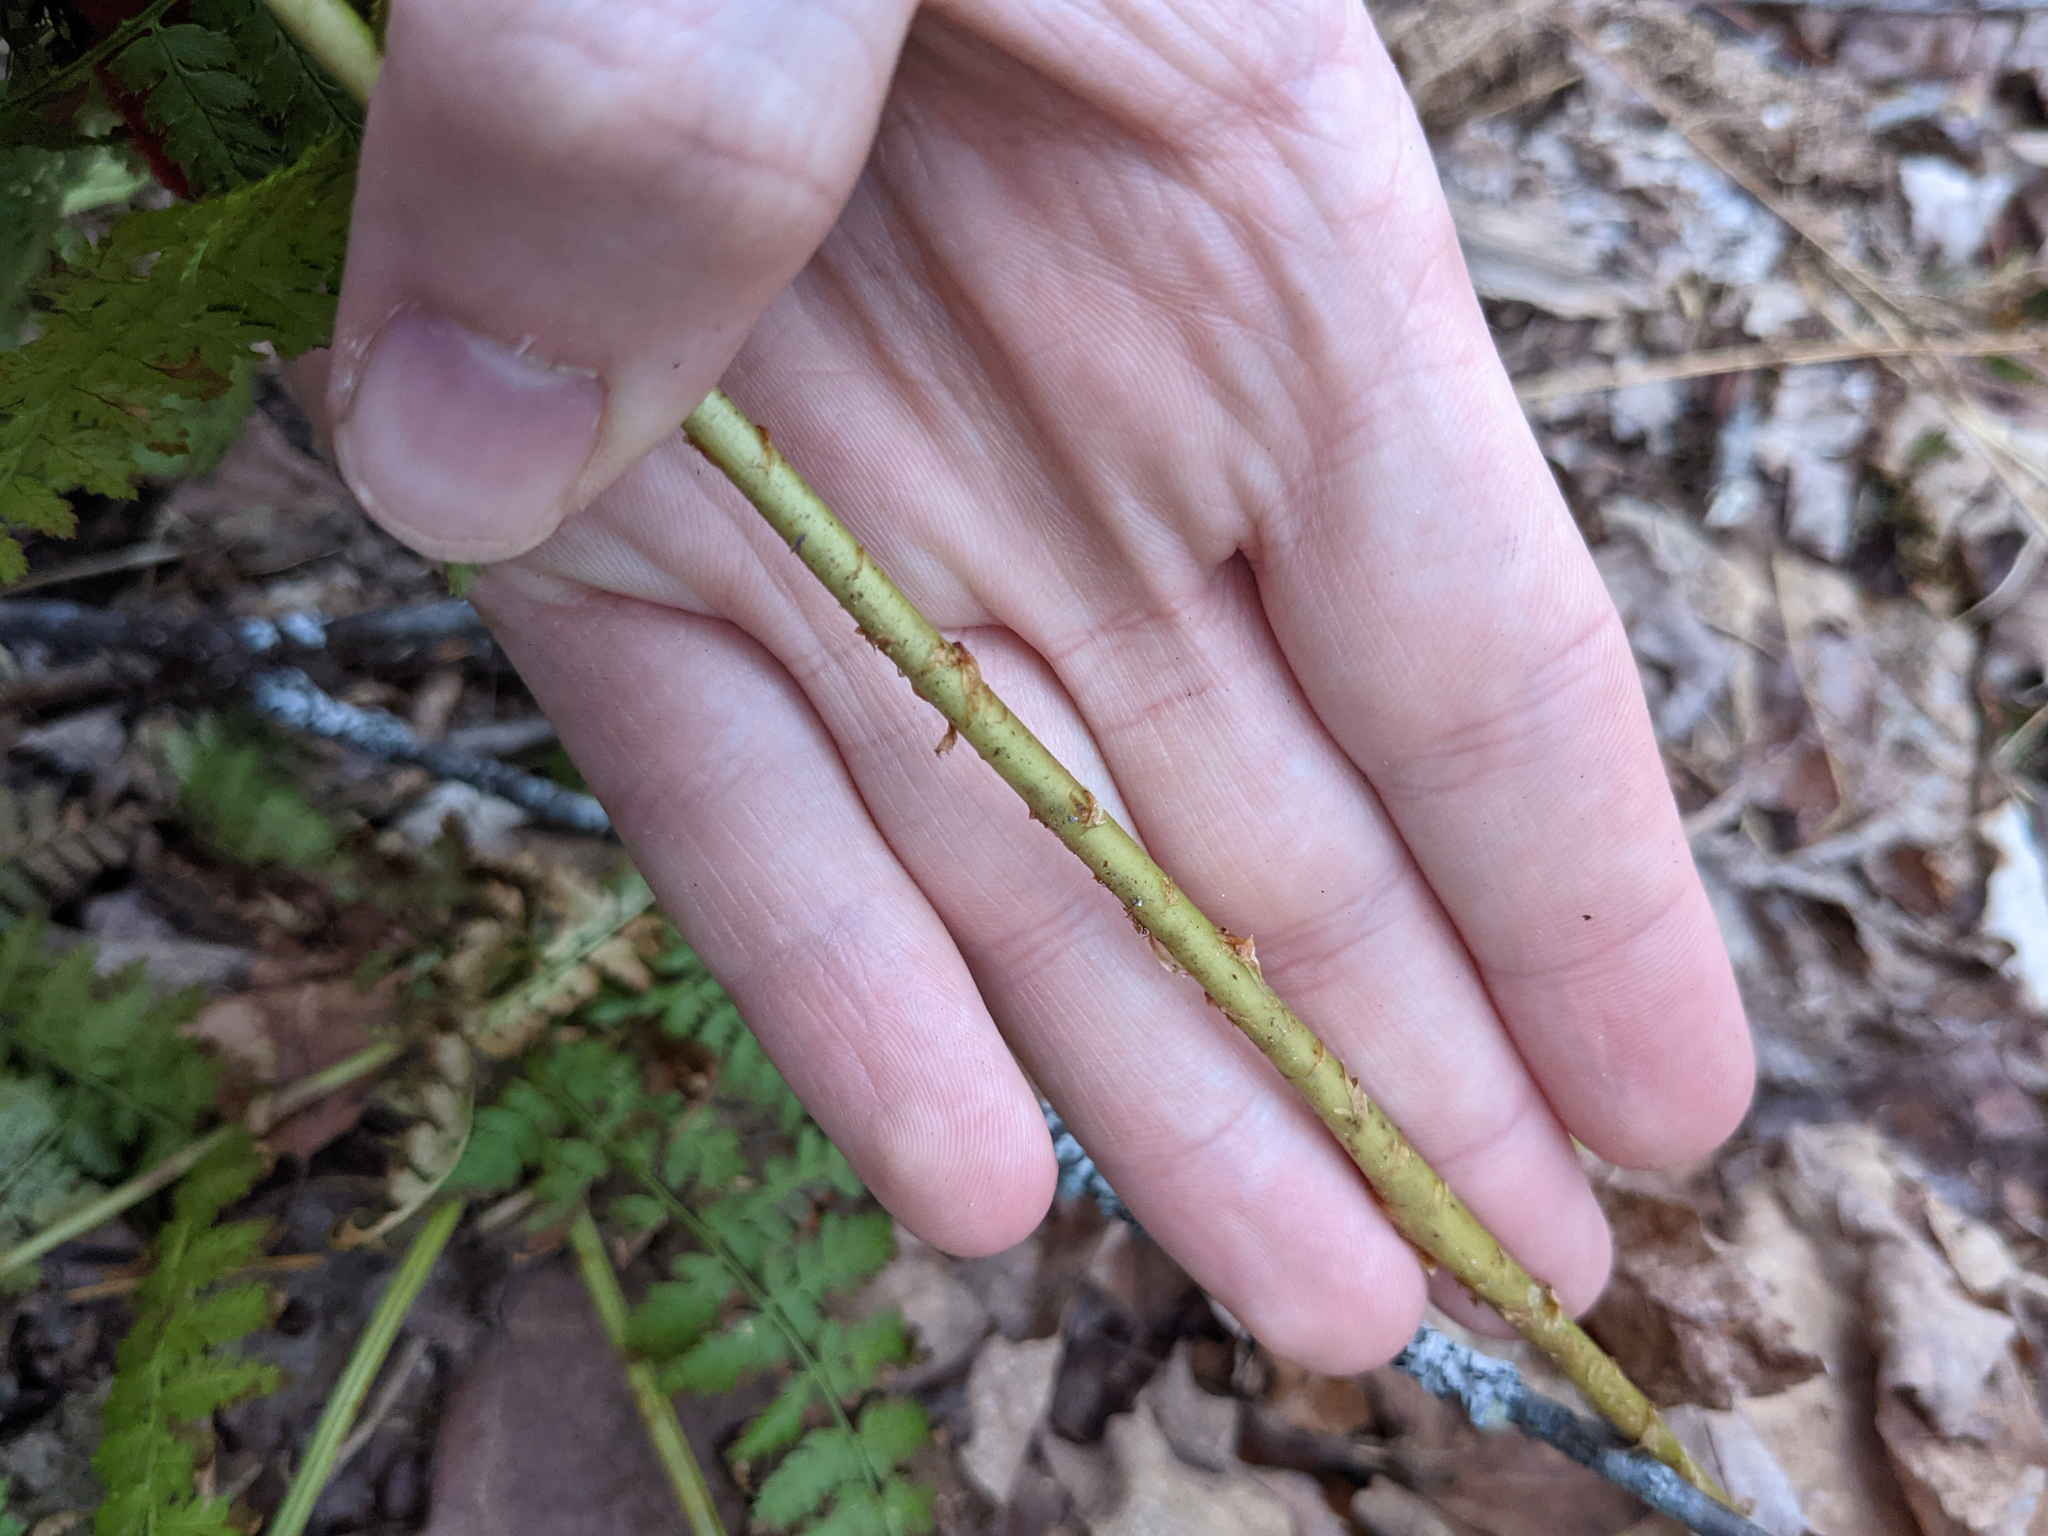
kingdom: Plantae
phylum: Tracheophyta
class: Polypodiopsida
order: Polypodiales
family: Dryopteridaceae
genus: Dryopteris
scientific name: Dryopteris intermedia
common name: Evergreen wood fern
